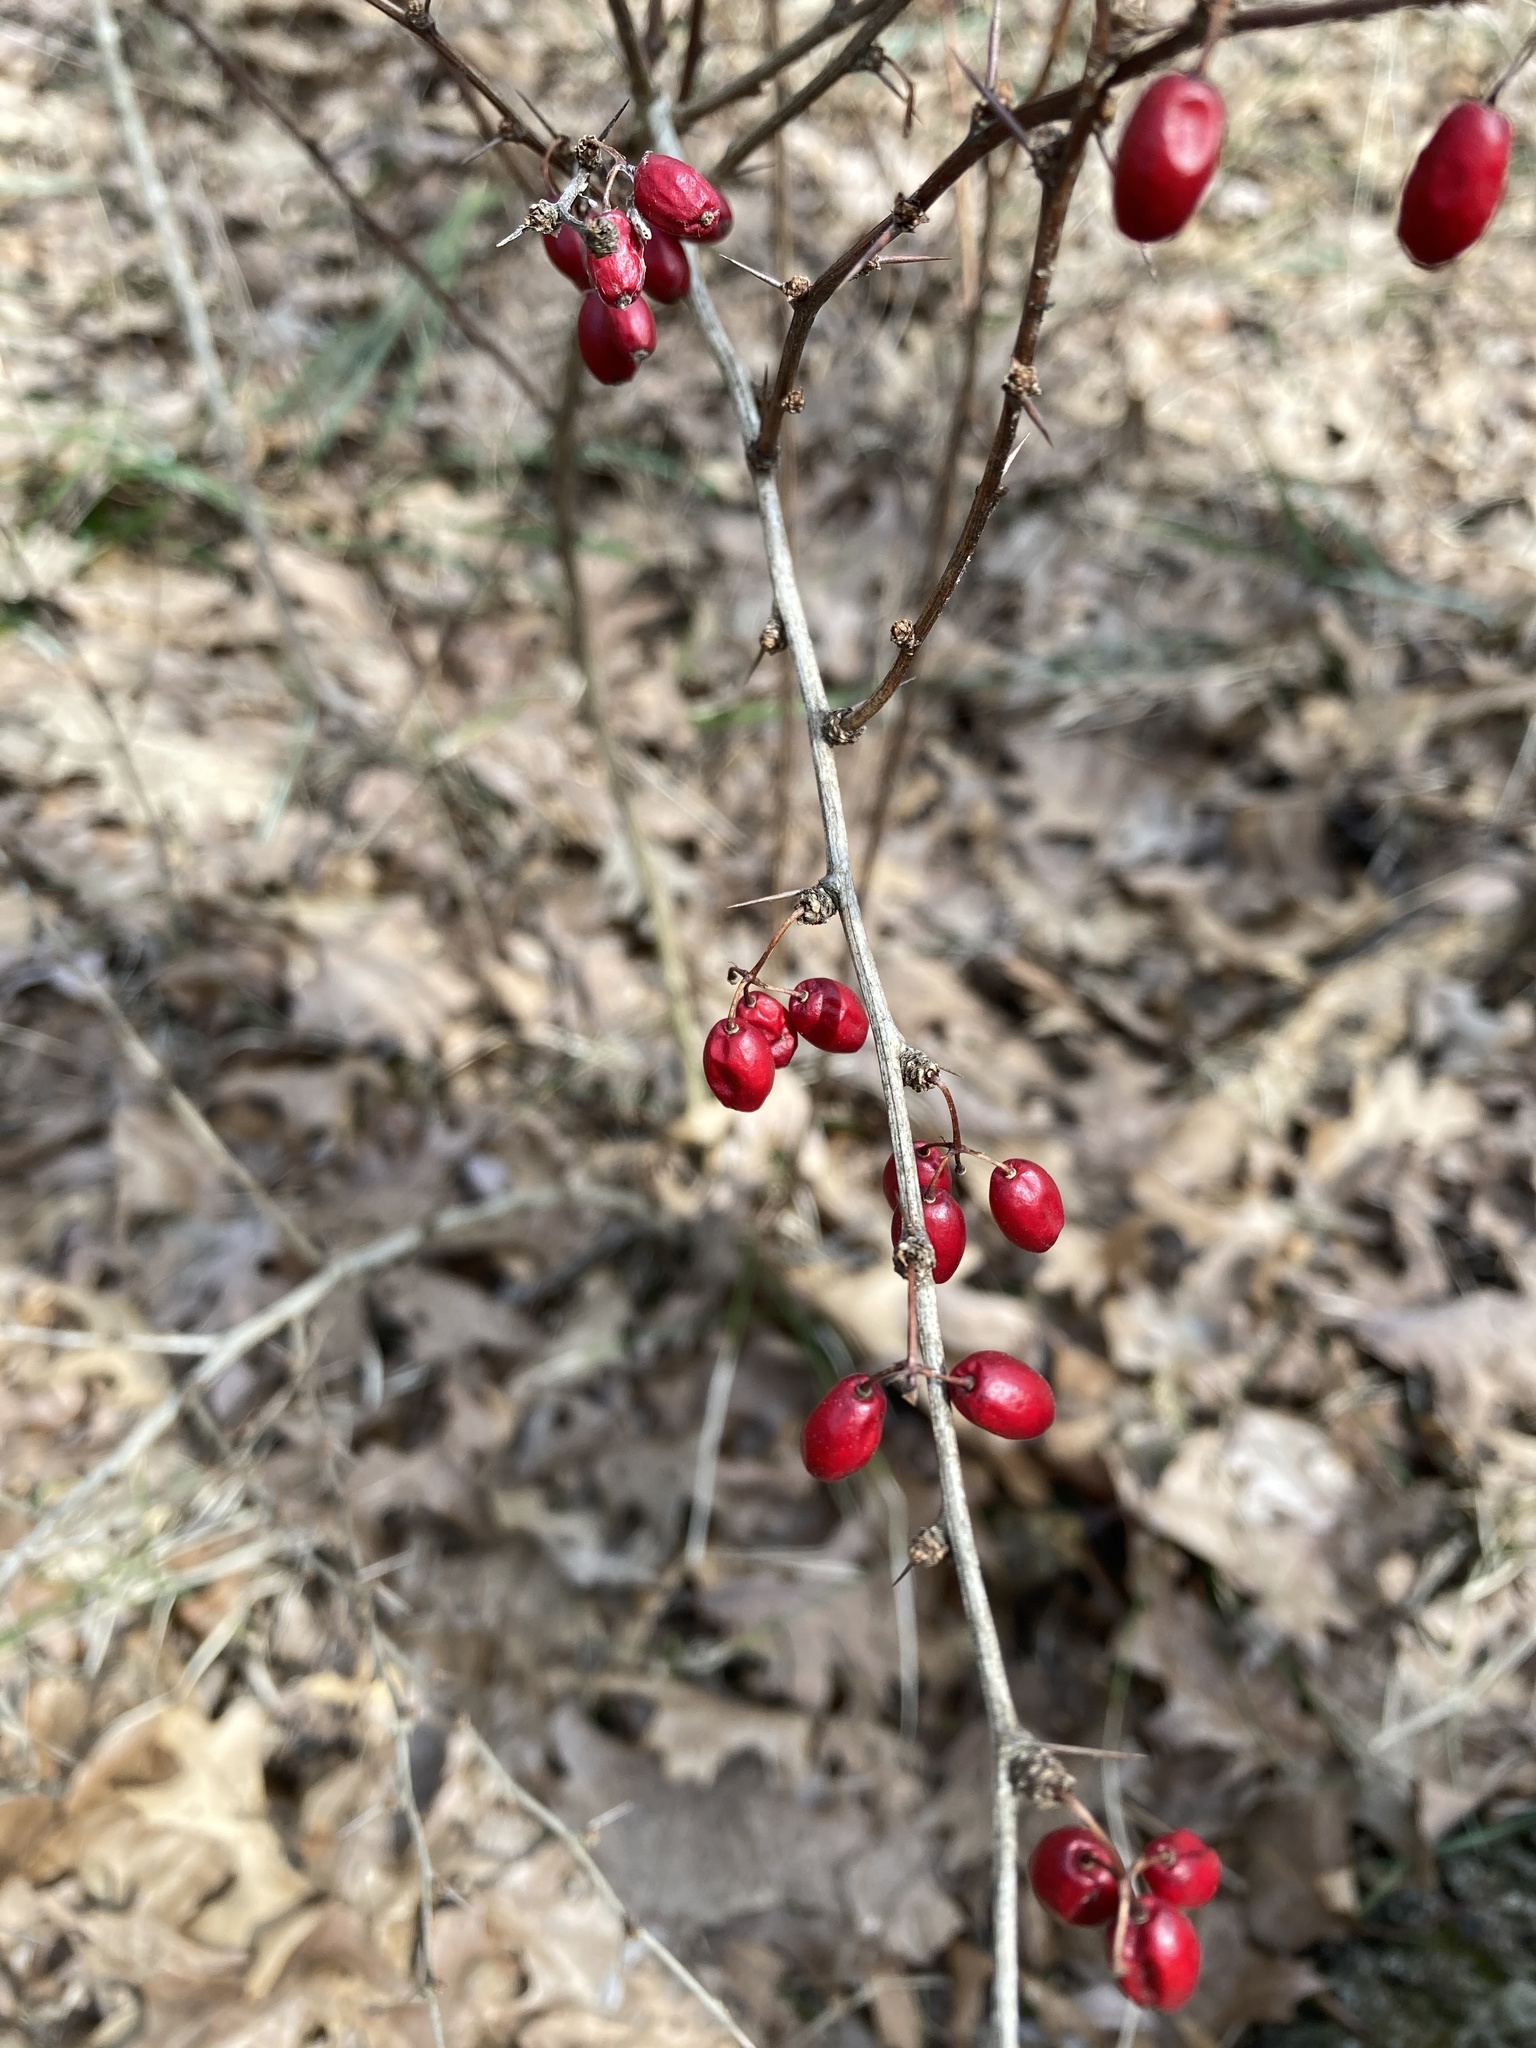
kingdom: Plantae
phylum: Tracheophyta
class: Magnoliopsida
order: Ranunculales
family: Berberidaceae
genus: Berberis
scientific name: Berberis thunbergii
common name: Japanese barberry
